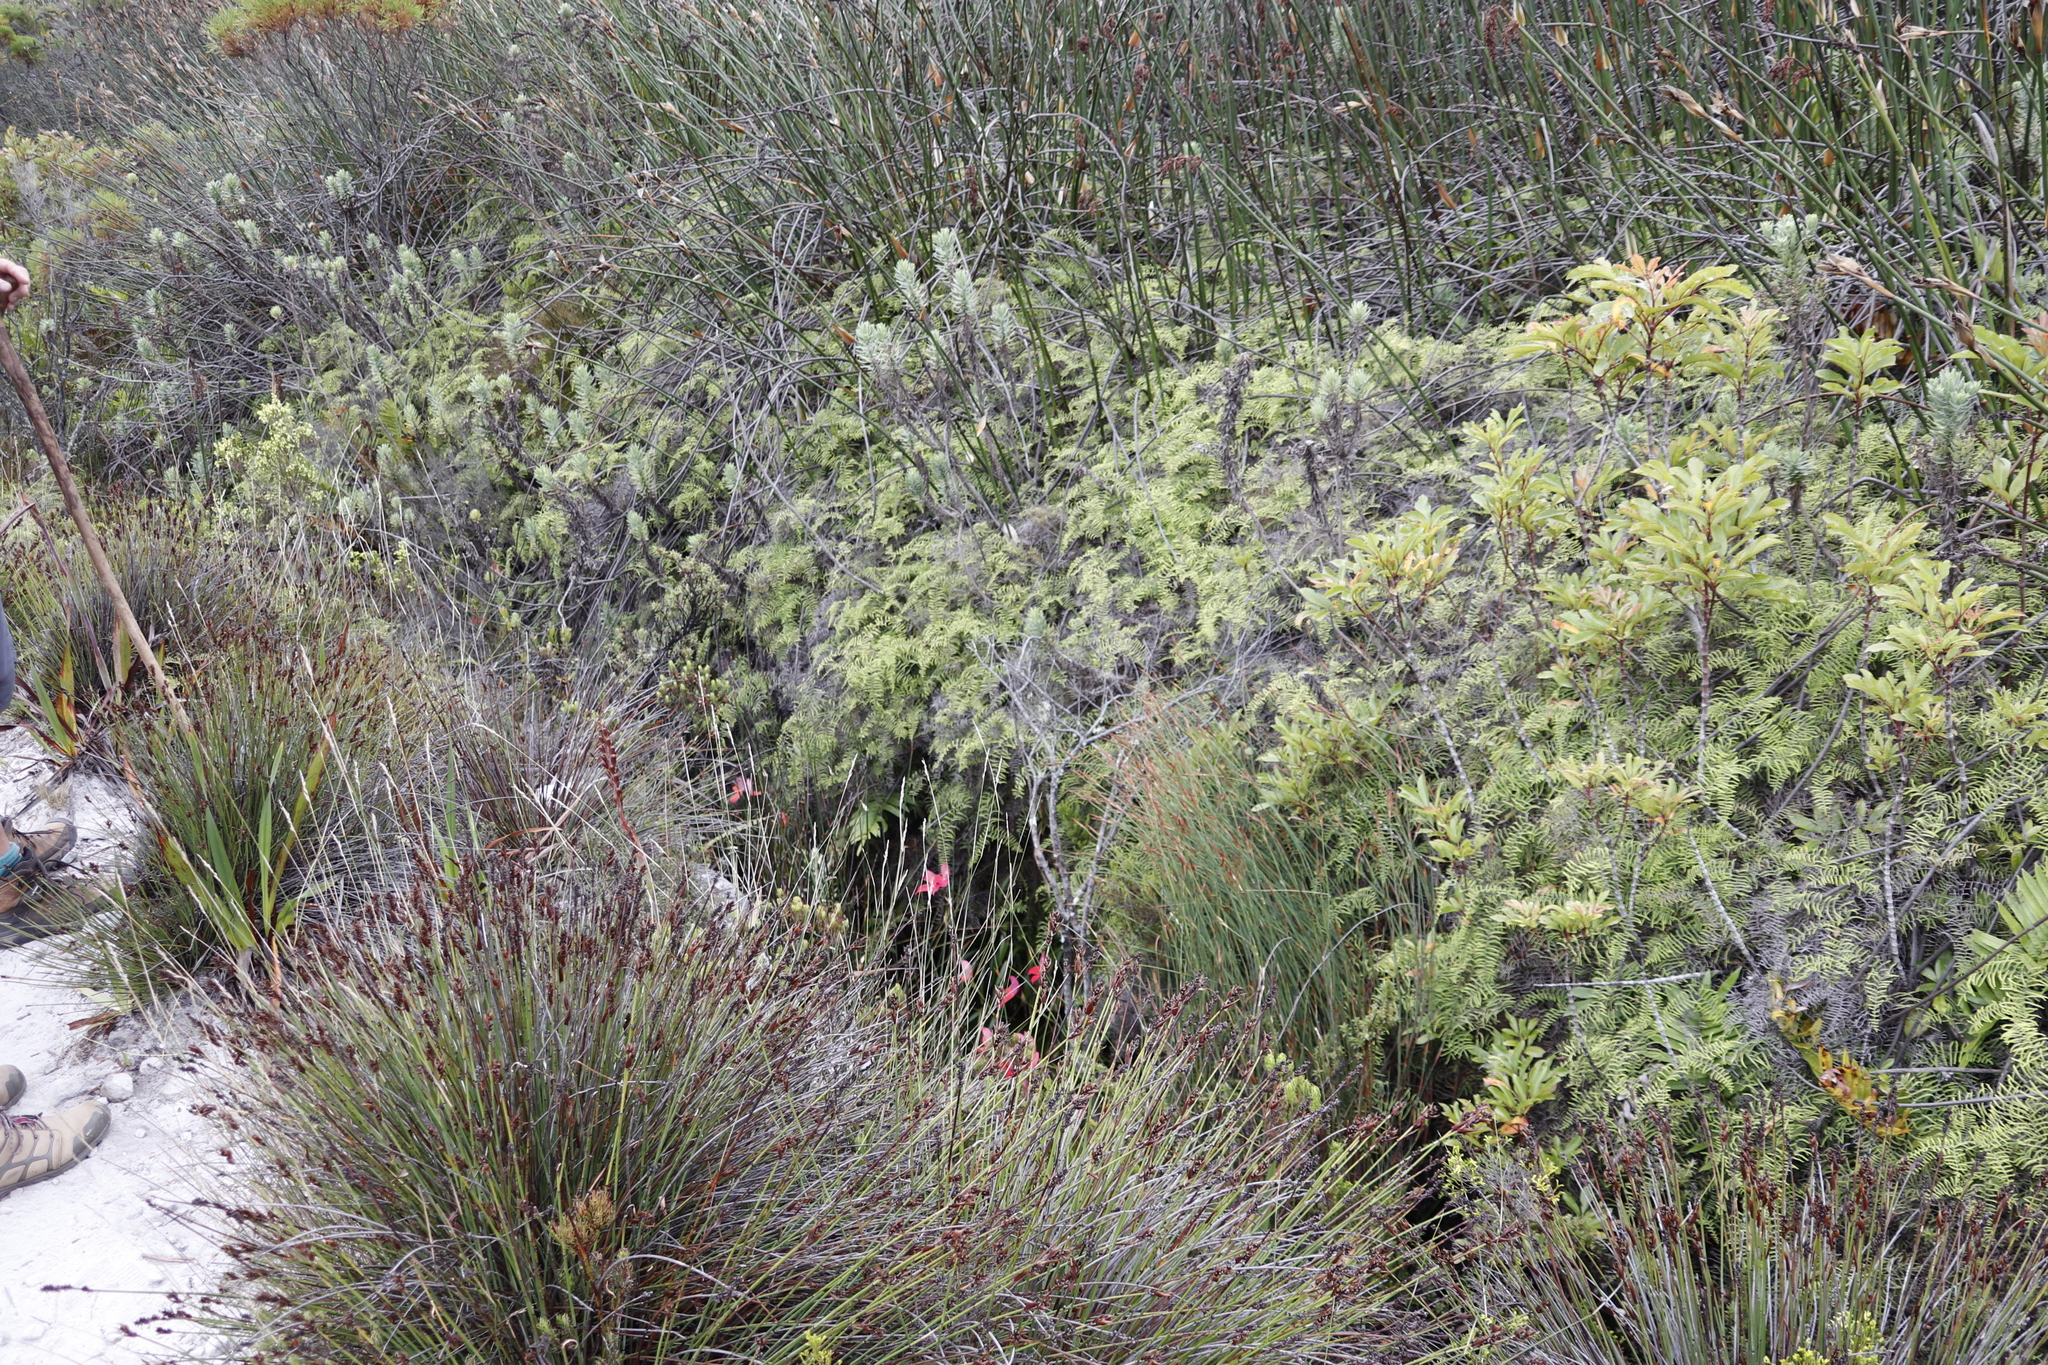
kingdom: Plantae
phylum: Tracheophyta
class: Polypodiopsida
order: Gleicheniales
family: Gleicheniaceae
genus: Gleichenia
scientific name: Gleichenia polypodioides
